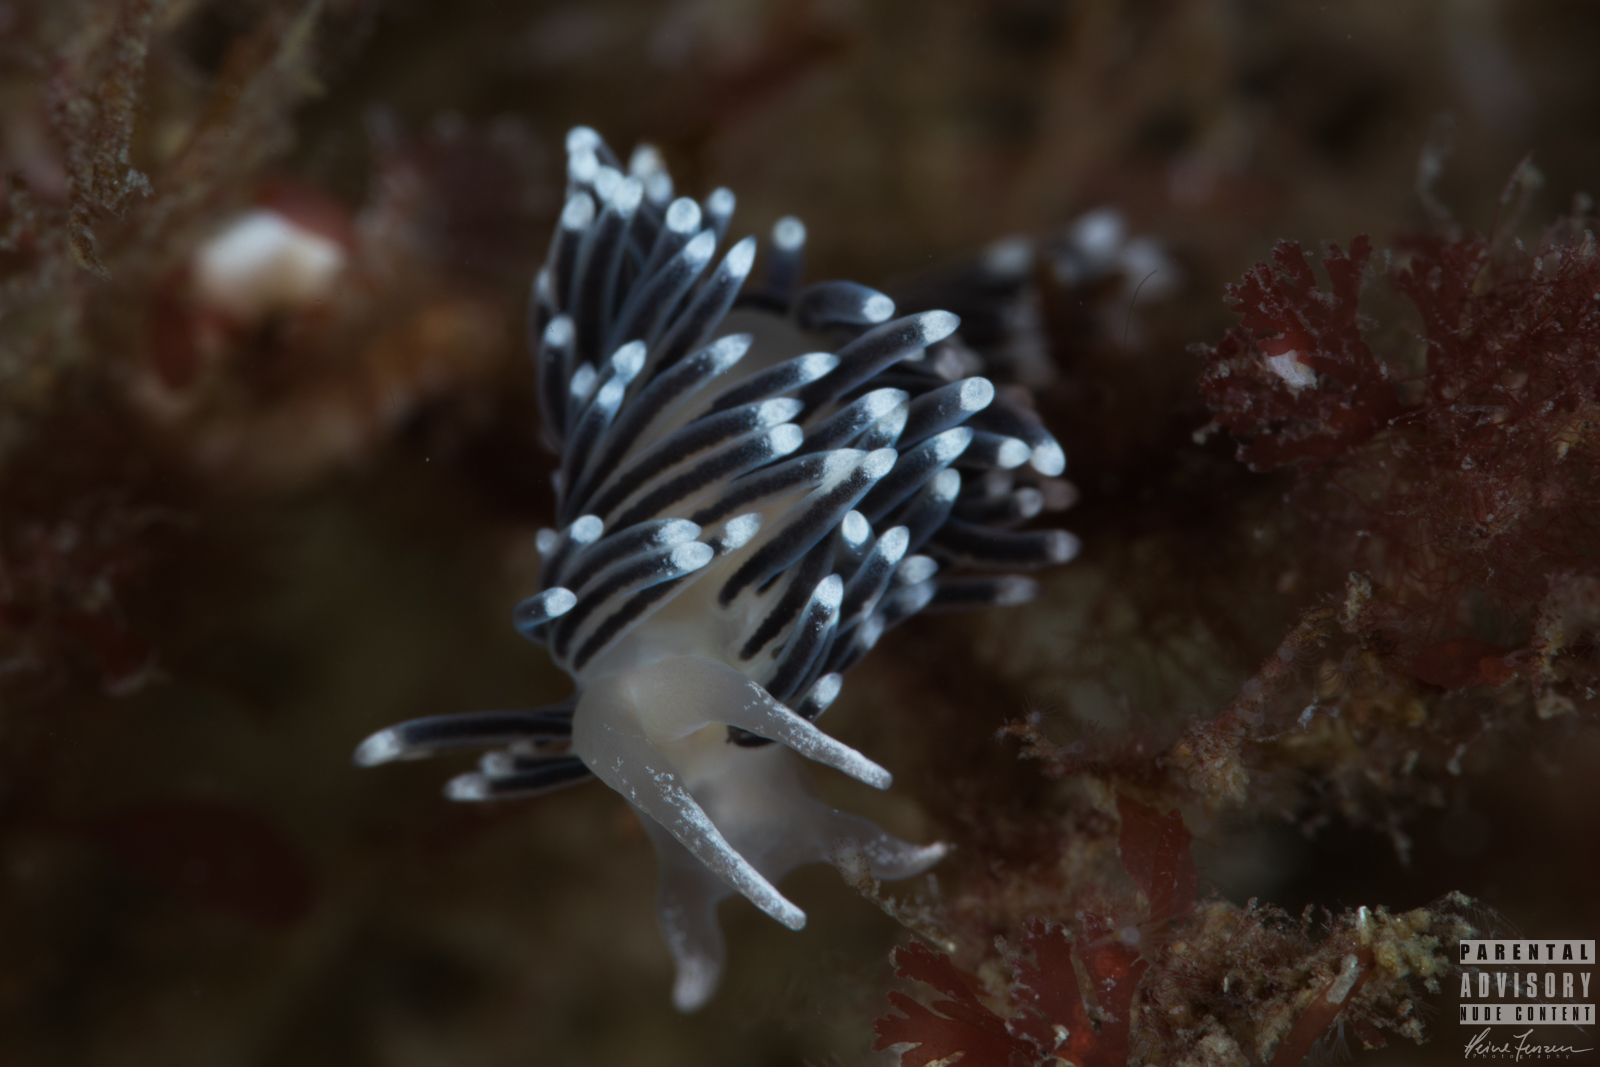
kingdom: Animalia
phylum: Mollusca
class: Gastropoda
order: Nudibranchia
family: Cuthonellidae
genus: Cuthonella
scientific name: Cuthonella concinna
